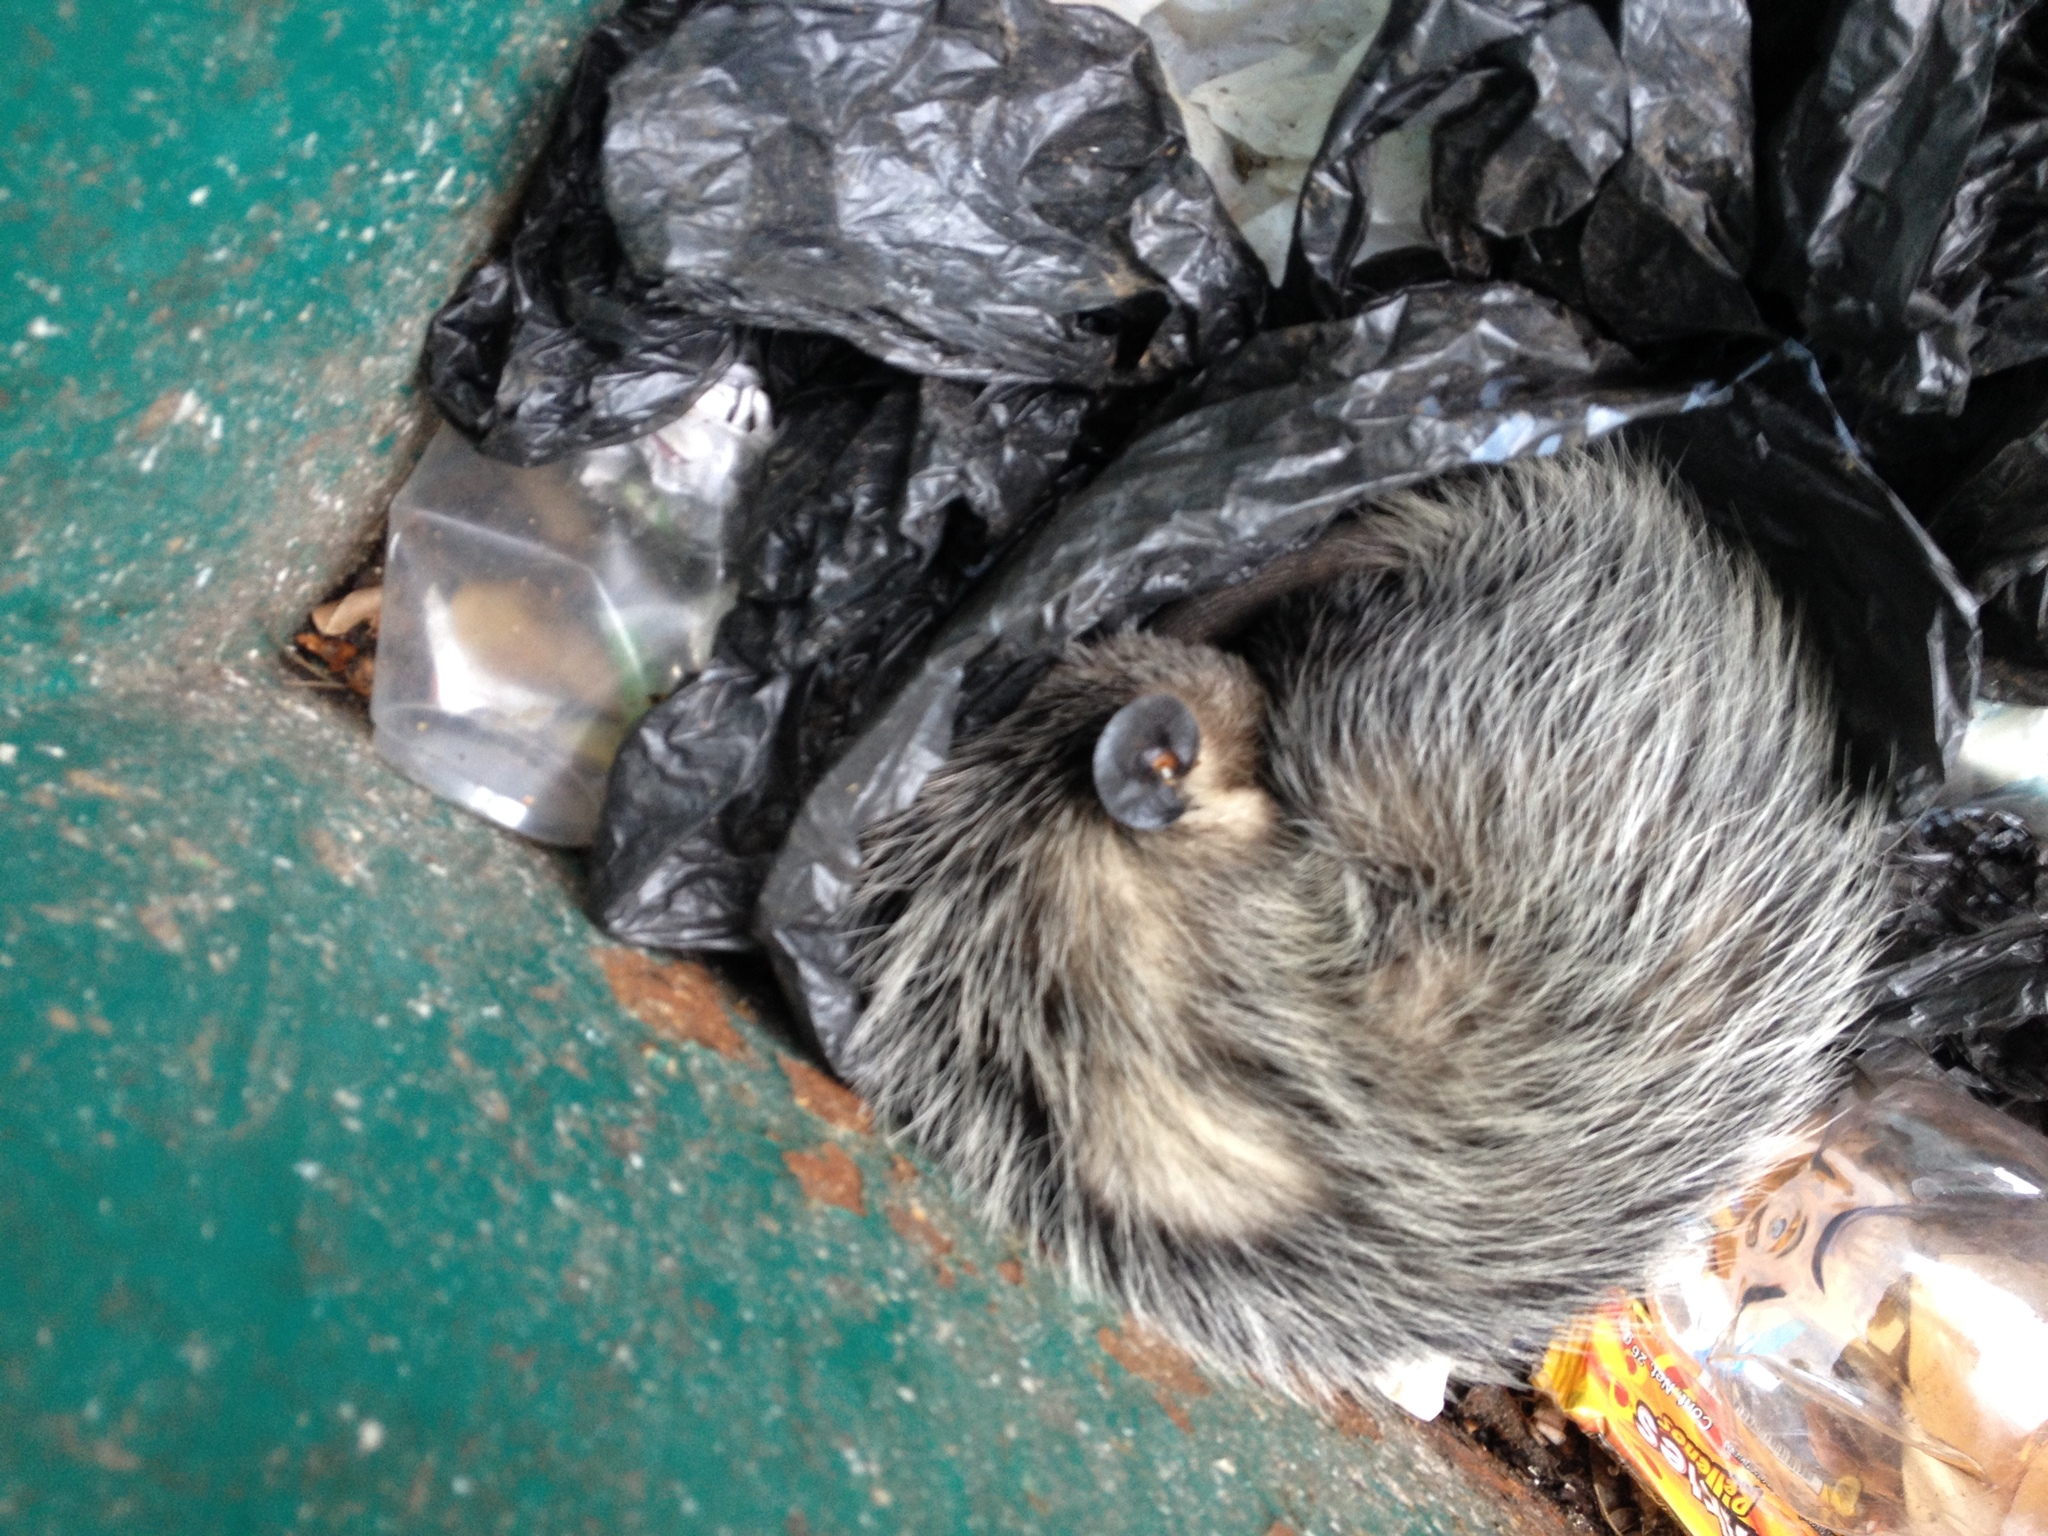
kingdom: Animalia
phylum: Chordata
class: Mammalia
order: Didelphimorphia
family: Didelphidae
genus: Didelphis
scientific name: Didelphis virginiana
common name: Virginia opossum
